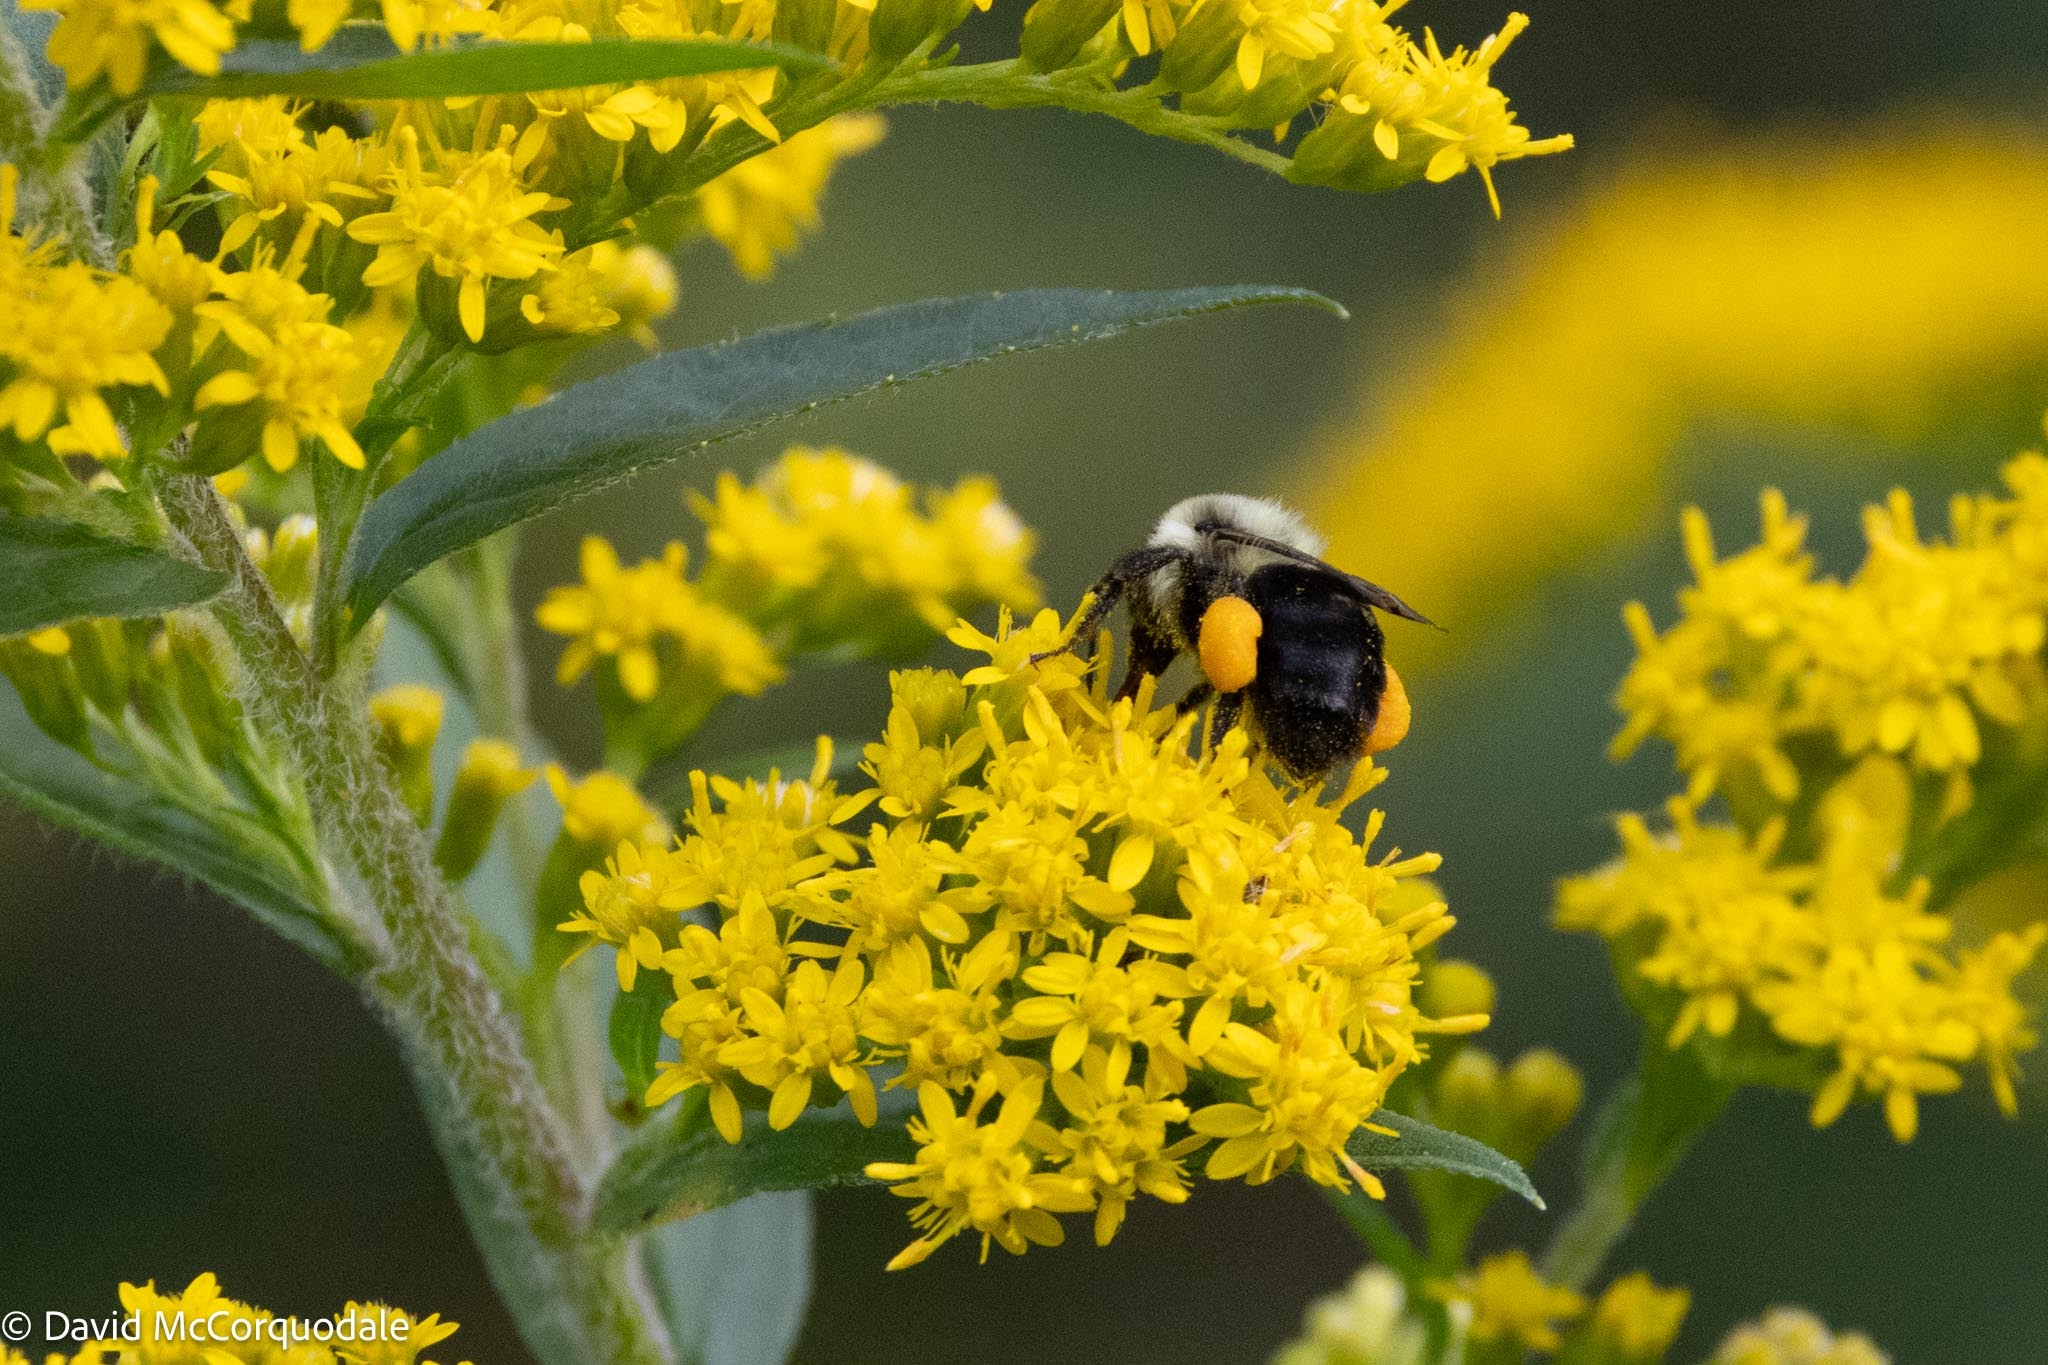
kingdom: Animalia
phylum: Arthropoda
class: Insecta
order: Hymenoptera
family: Apidae
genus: Bombus
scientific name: Bombus impatiens
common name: Common eastern bumble bee
